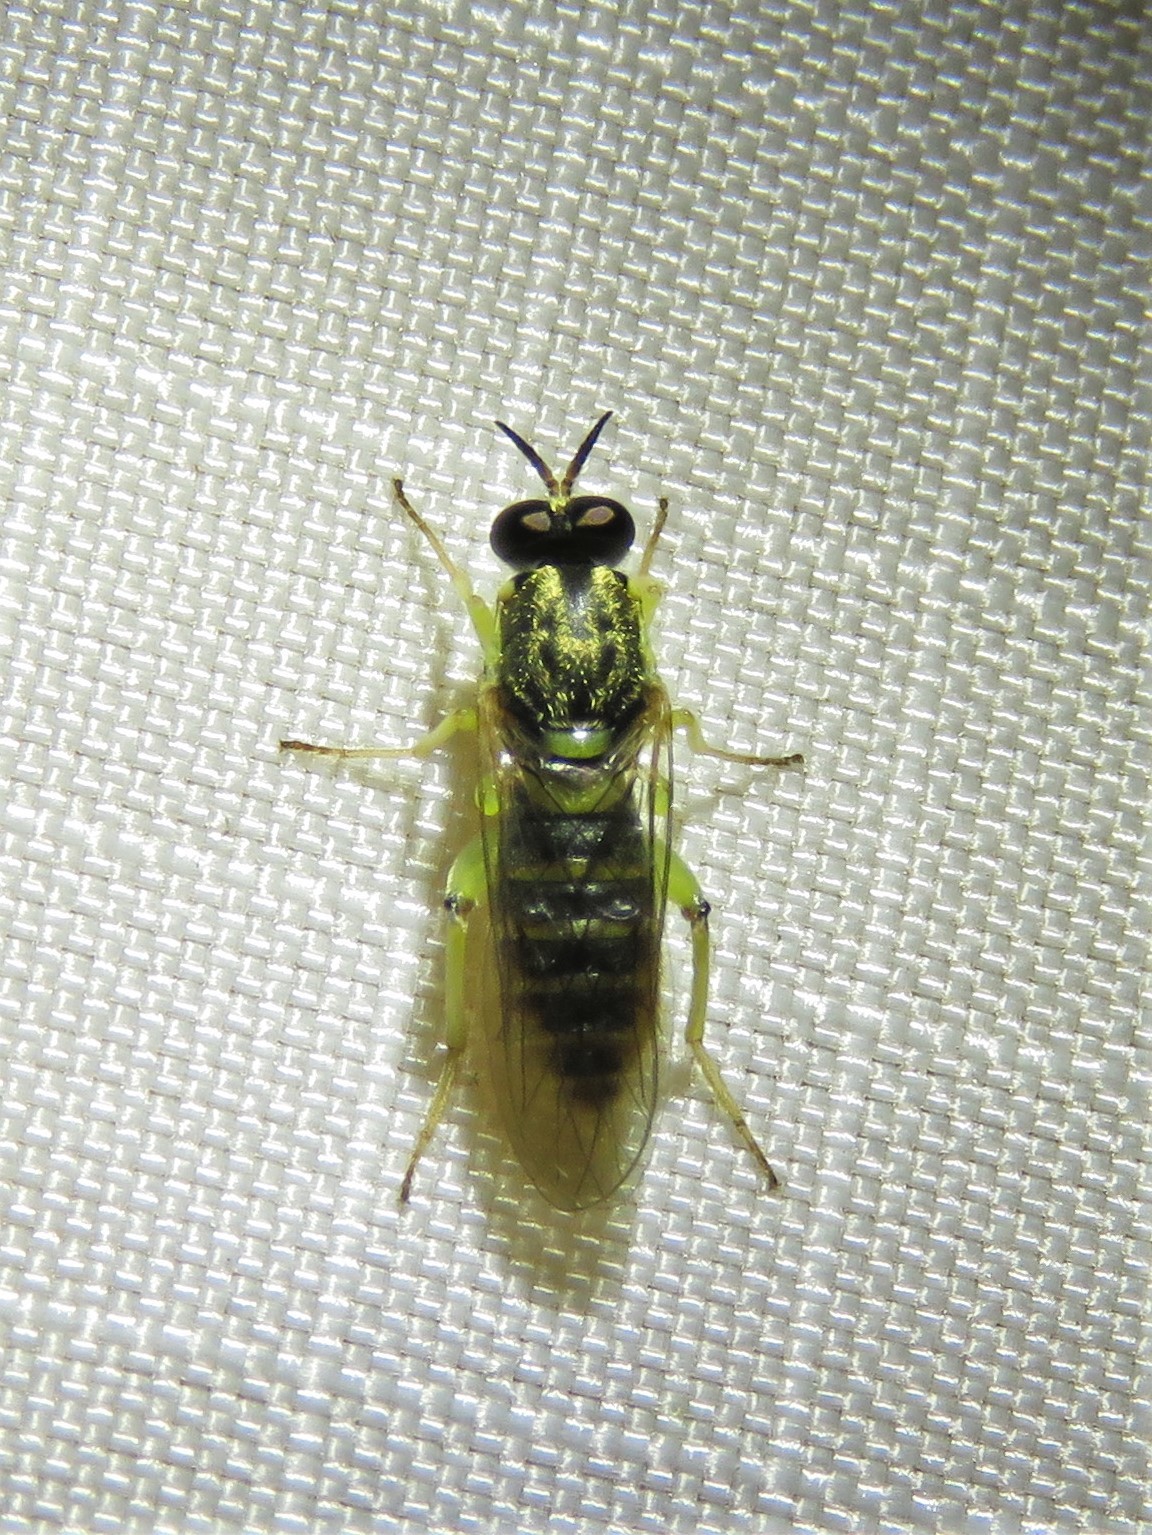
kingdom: Animalia
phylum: Arthropoda
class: Insecta
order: Diptera
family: Xylomyidae
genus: Solva
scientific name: Solva pallipes
